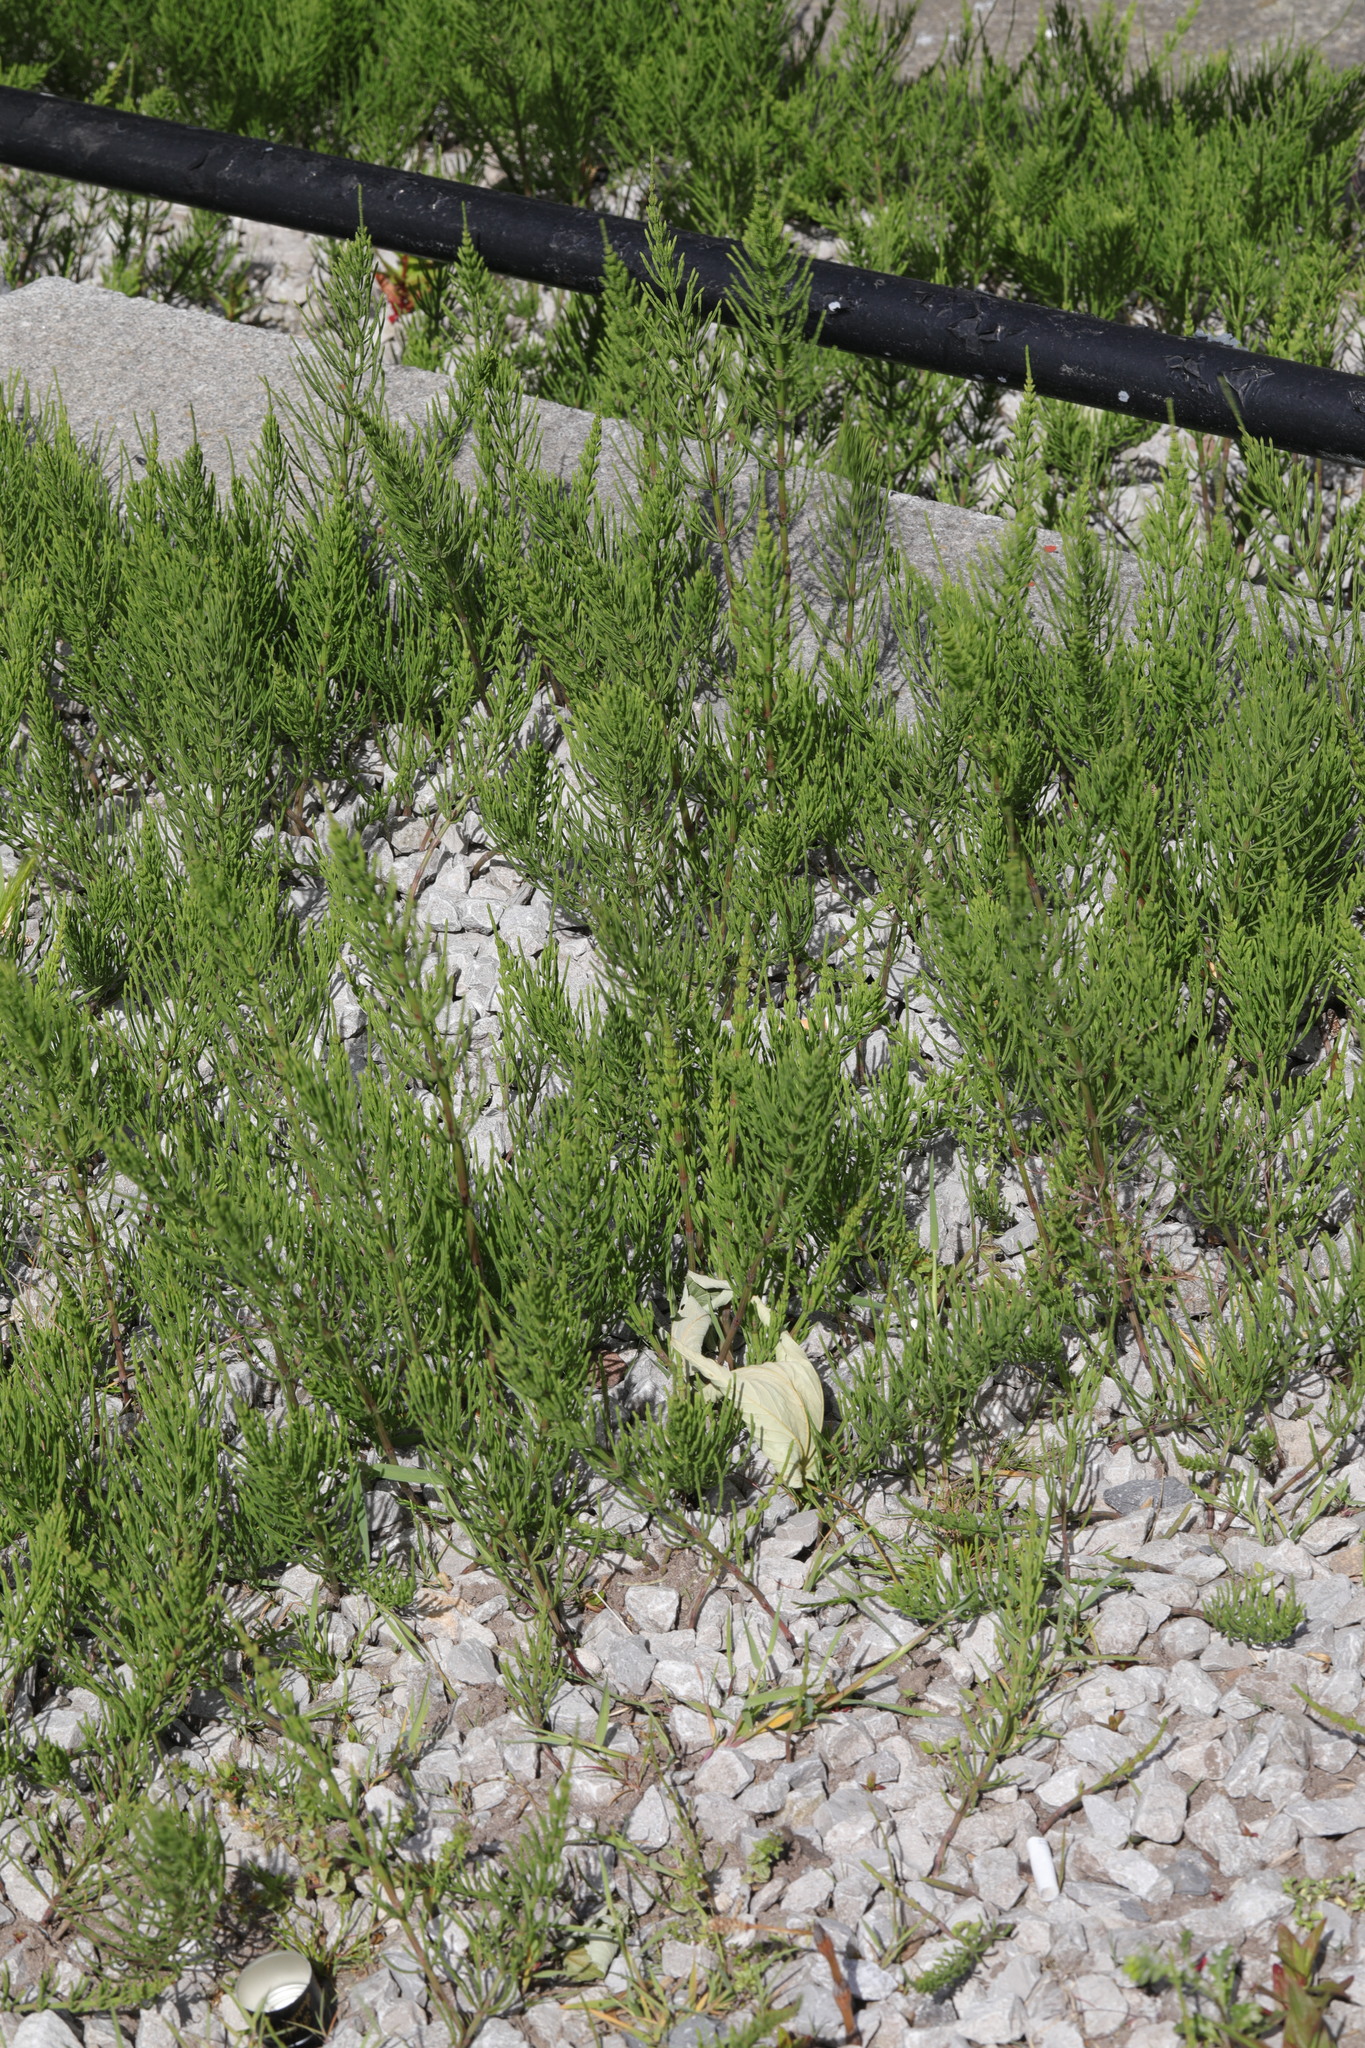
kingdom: Plantae
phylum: Tracheophyta
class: Polypodiopsida
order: Equisetales
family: Equisetaceae
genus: Equisetum
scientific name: Equisetum arvense
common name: Field horsetail
